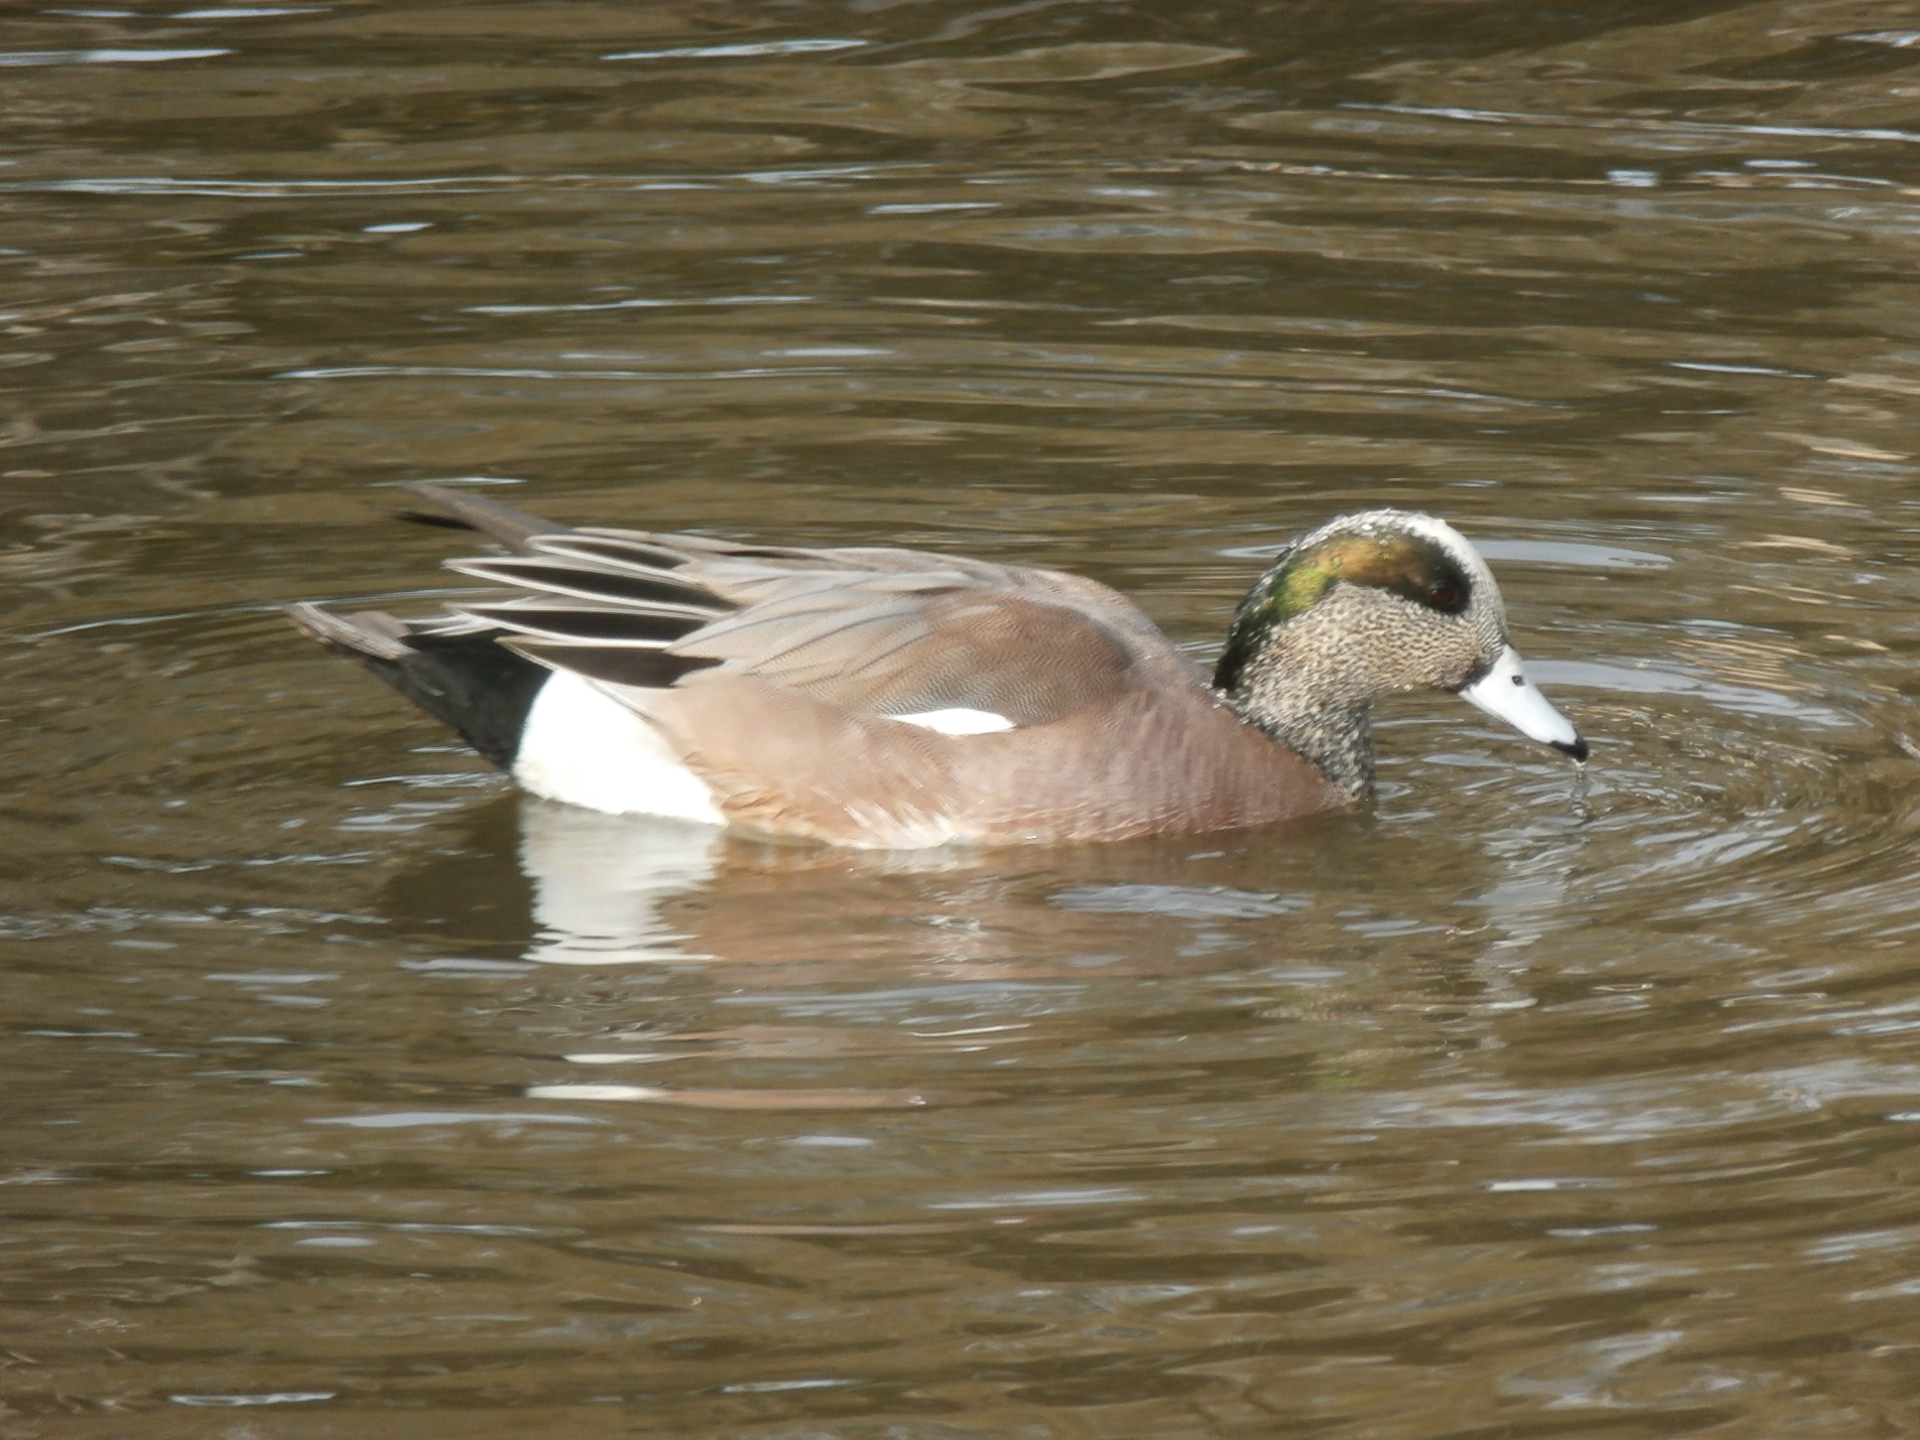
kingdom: Animalia
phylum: Chordata
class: Aves
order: Anseriformes
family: Anatidae
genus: Mareca
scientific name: Mareca americana
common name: American wigeon
